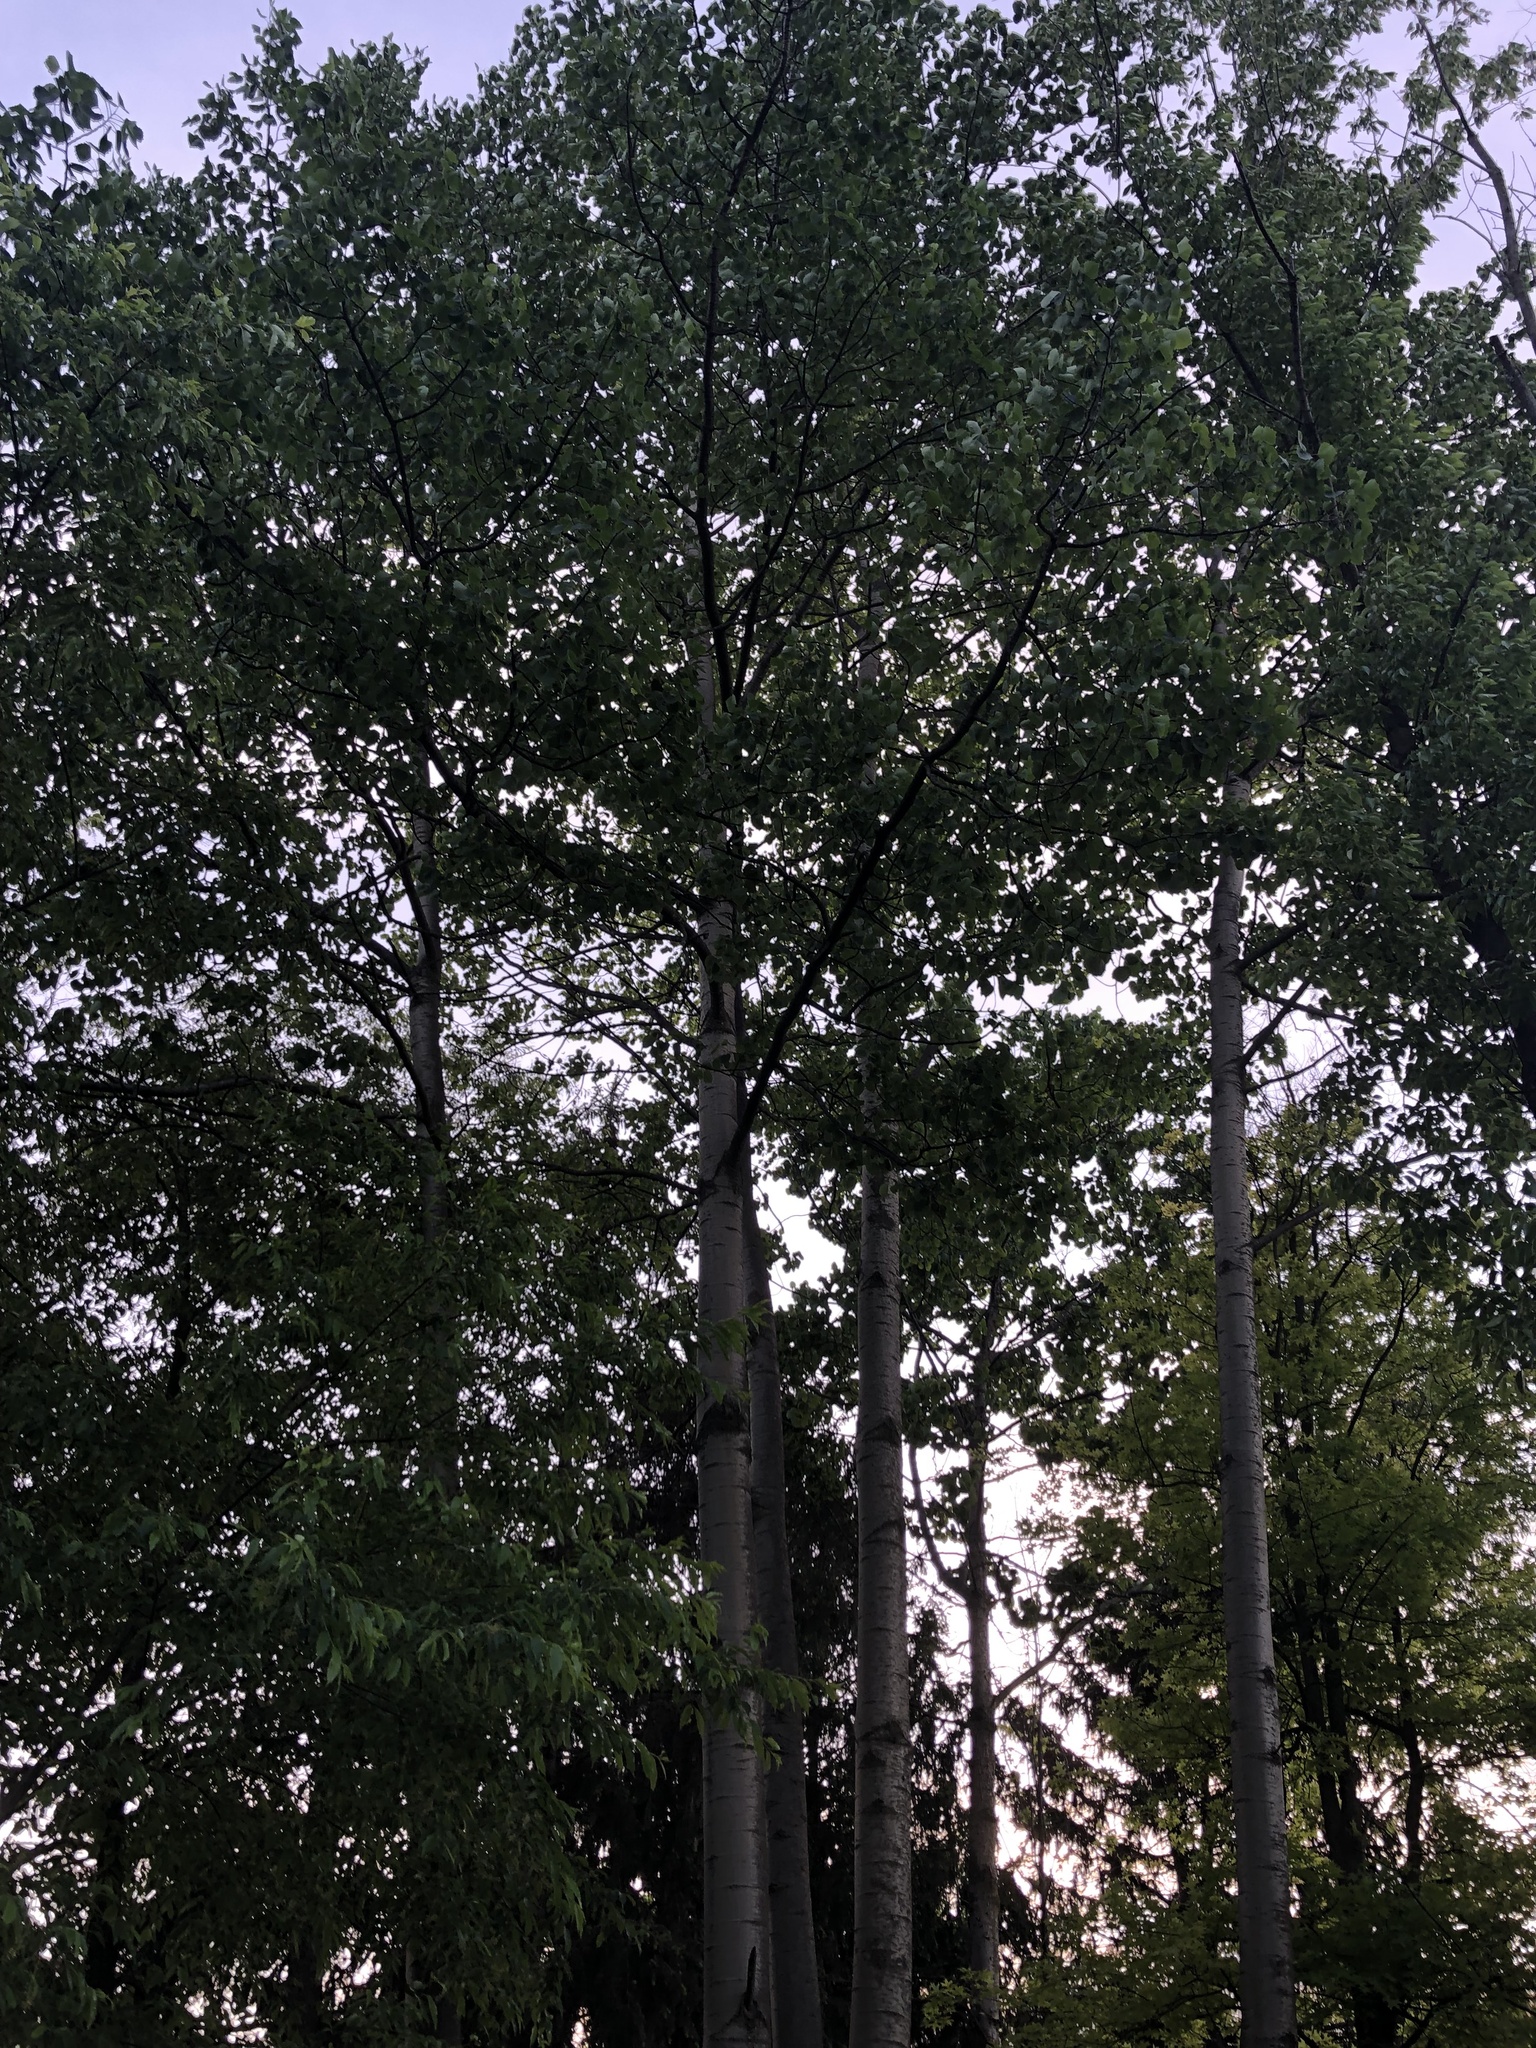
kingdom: Plantae
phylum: Tracheophyta
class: Magnoliopsida
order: Malpighiales
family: Salicaceae
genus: Populus
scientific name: Populus grandidentata
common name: Bigtooth aspen
